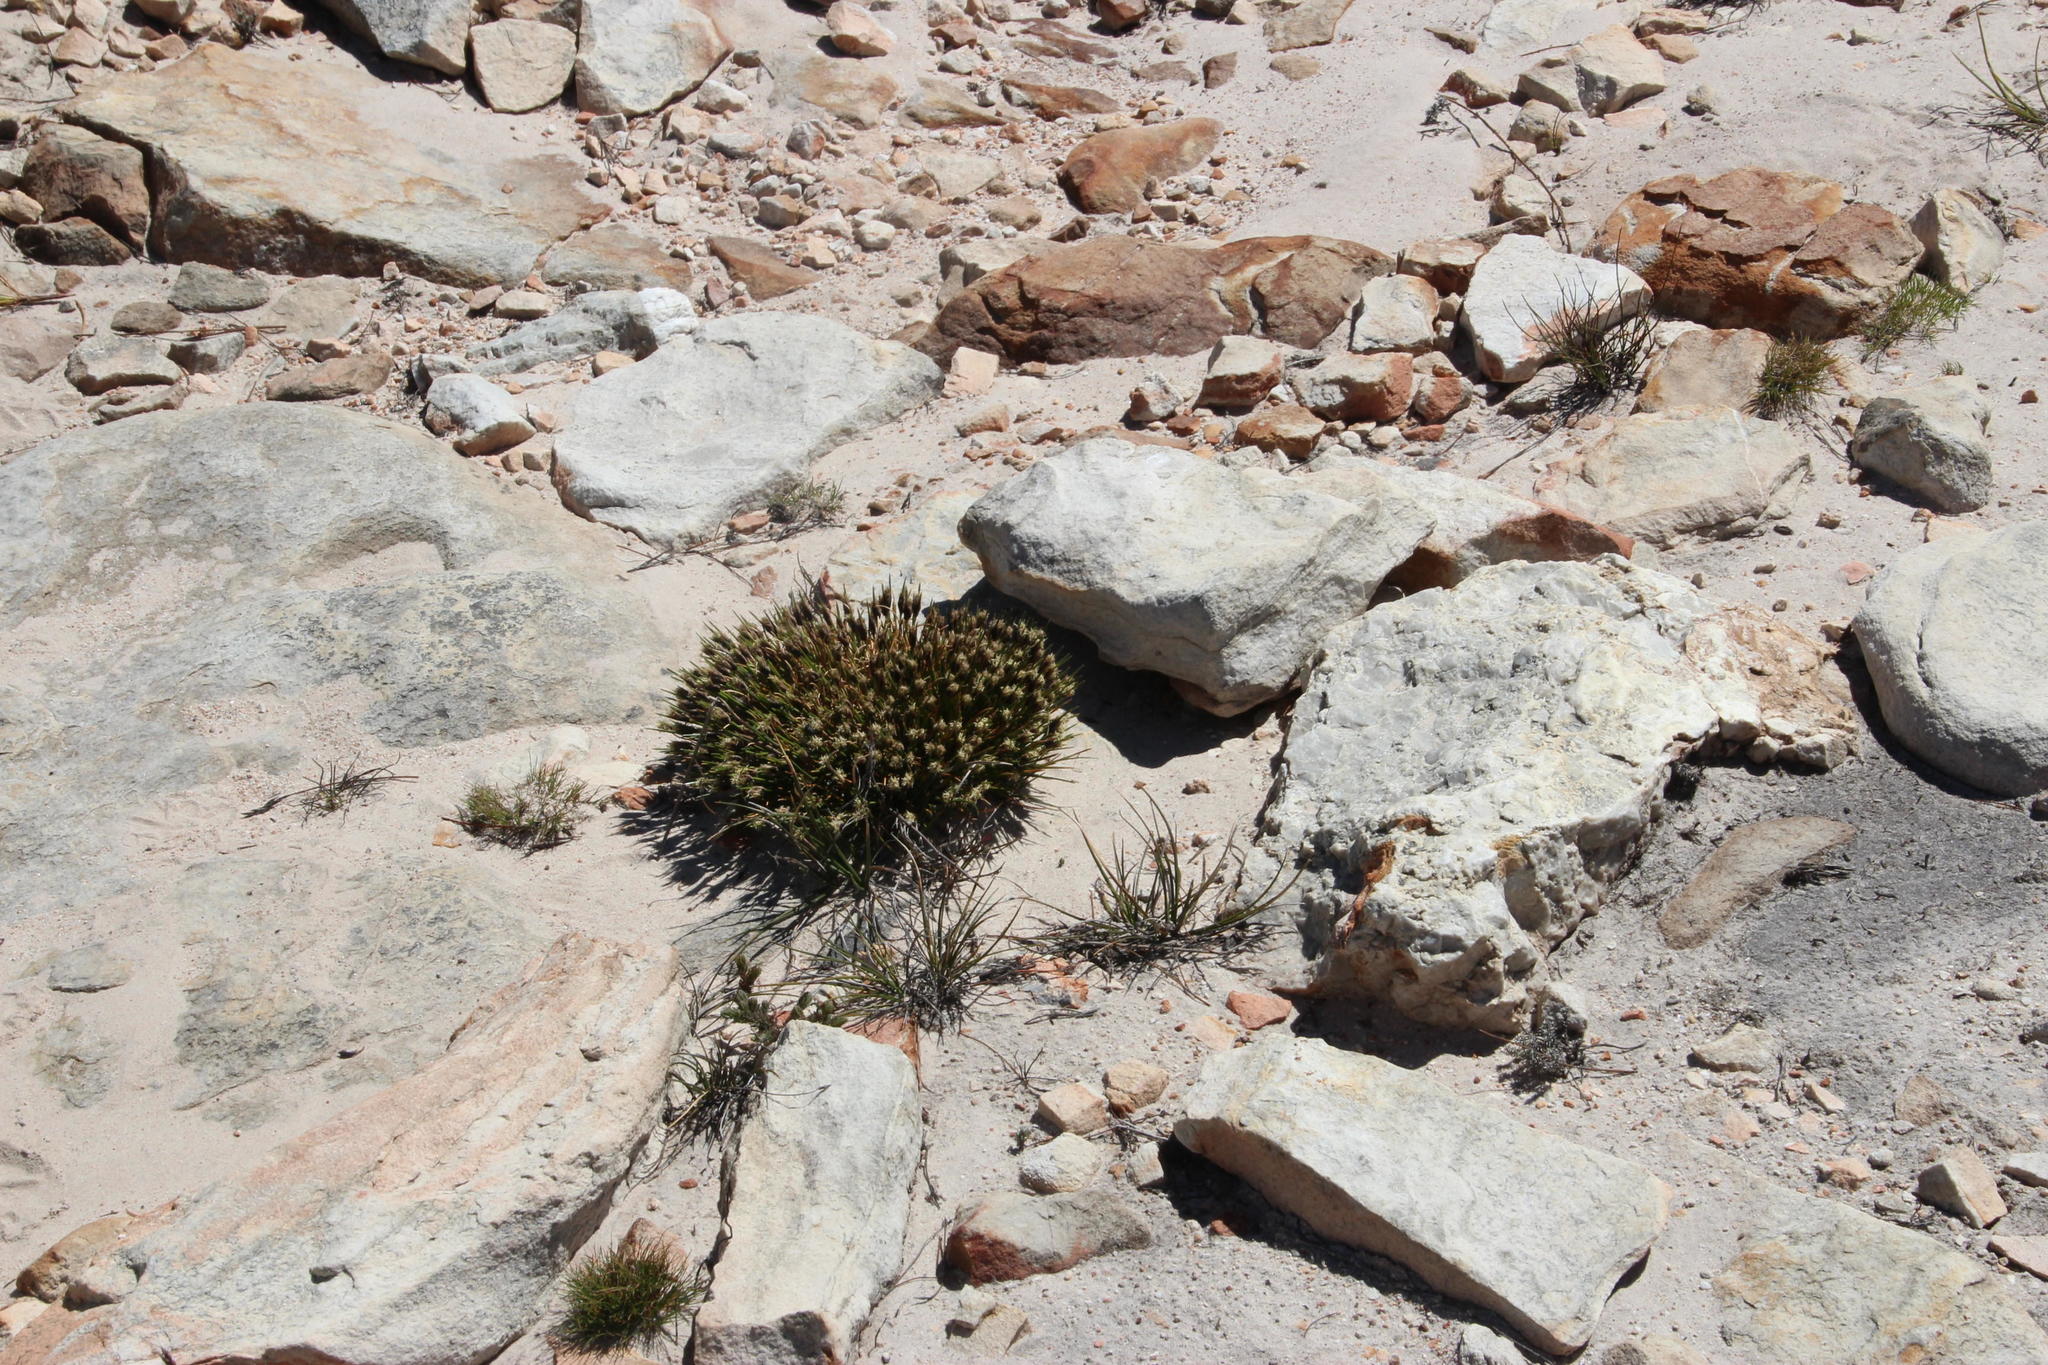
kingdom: Plantae
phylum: Tracheophyta
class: Liliopsida
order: Poales
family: Cyperaceae
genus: Ficinia
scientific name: Ficinia montana
